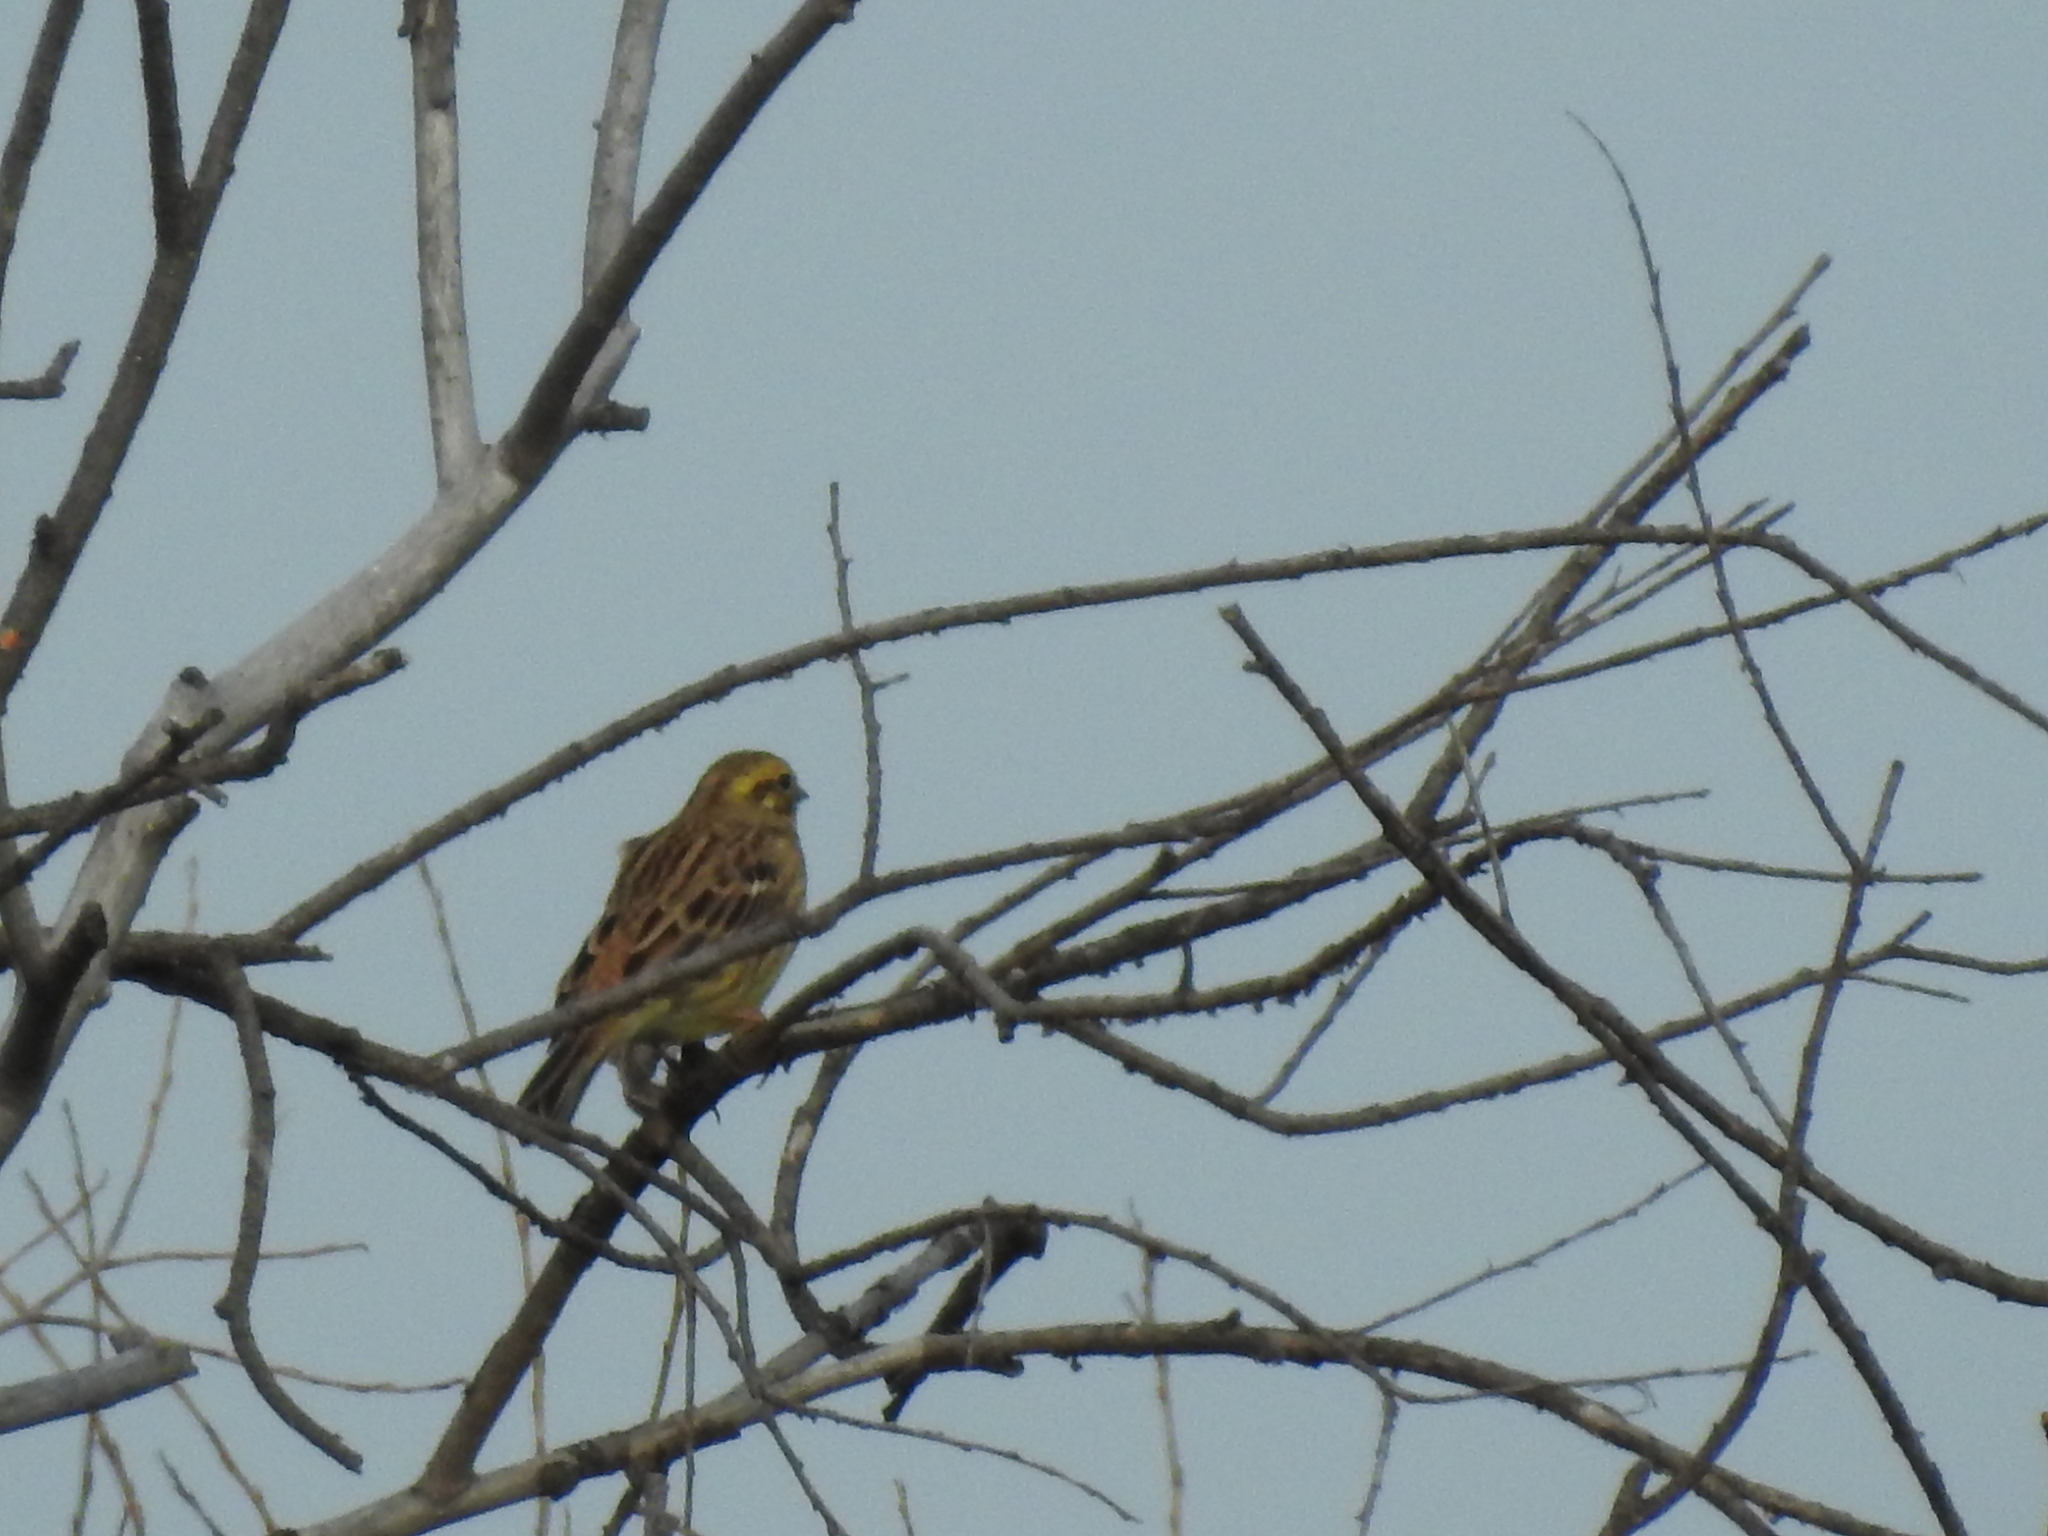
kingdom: Animalia
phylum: Chordata
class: Aves
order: Passeriformes
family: Emberizidae
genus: Emberiza
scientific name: Emberiza citrinella
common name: Yellowhammer
